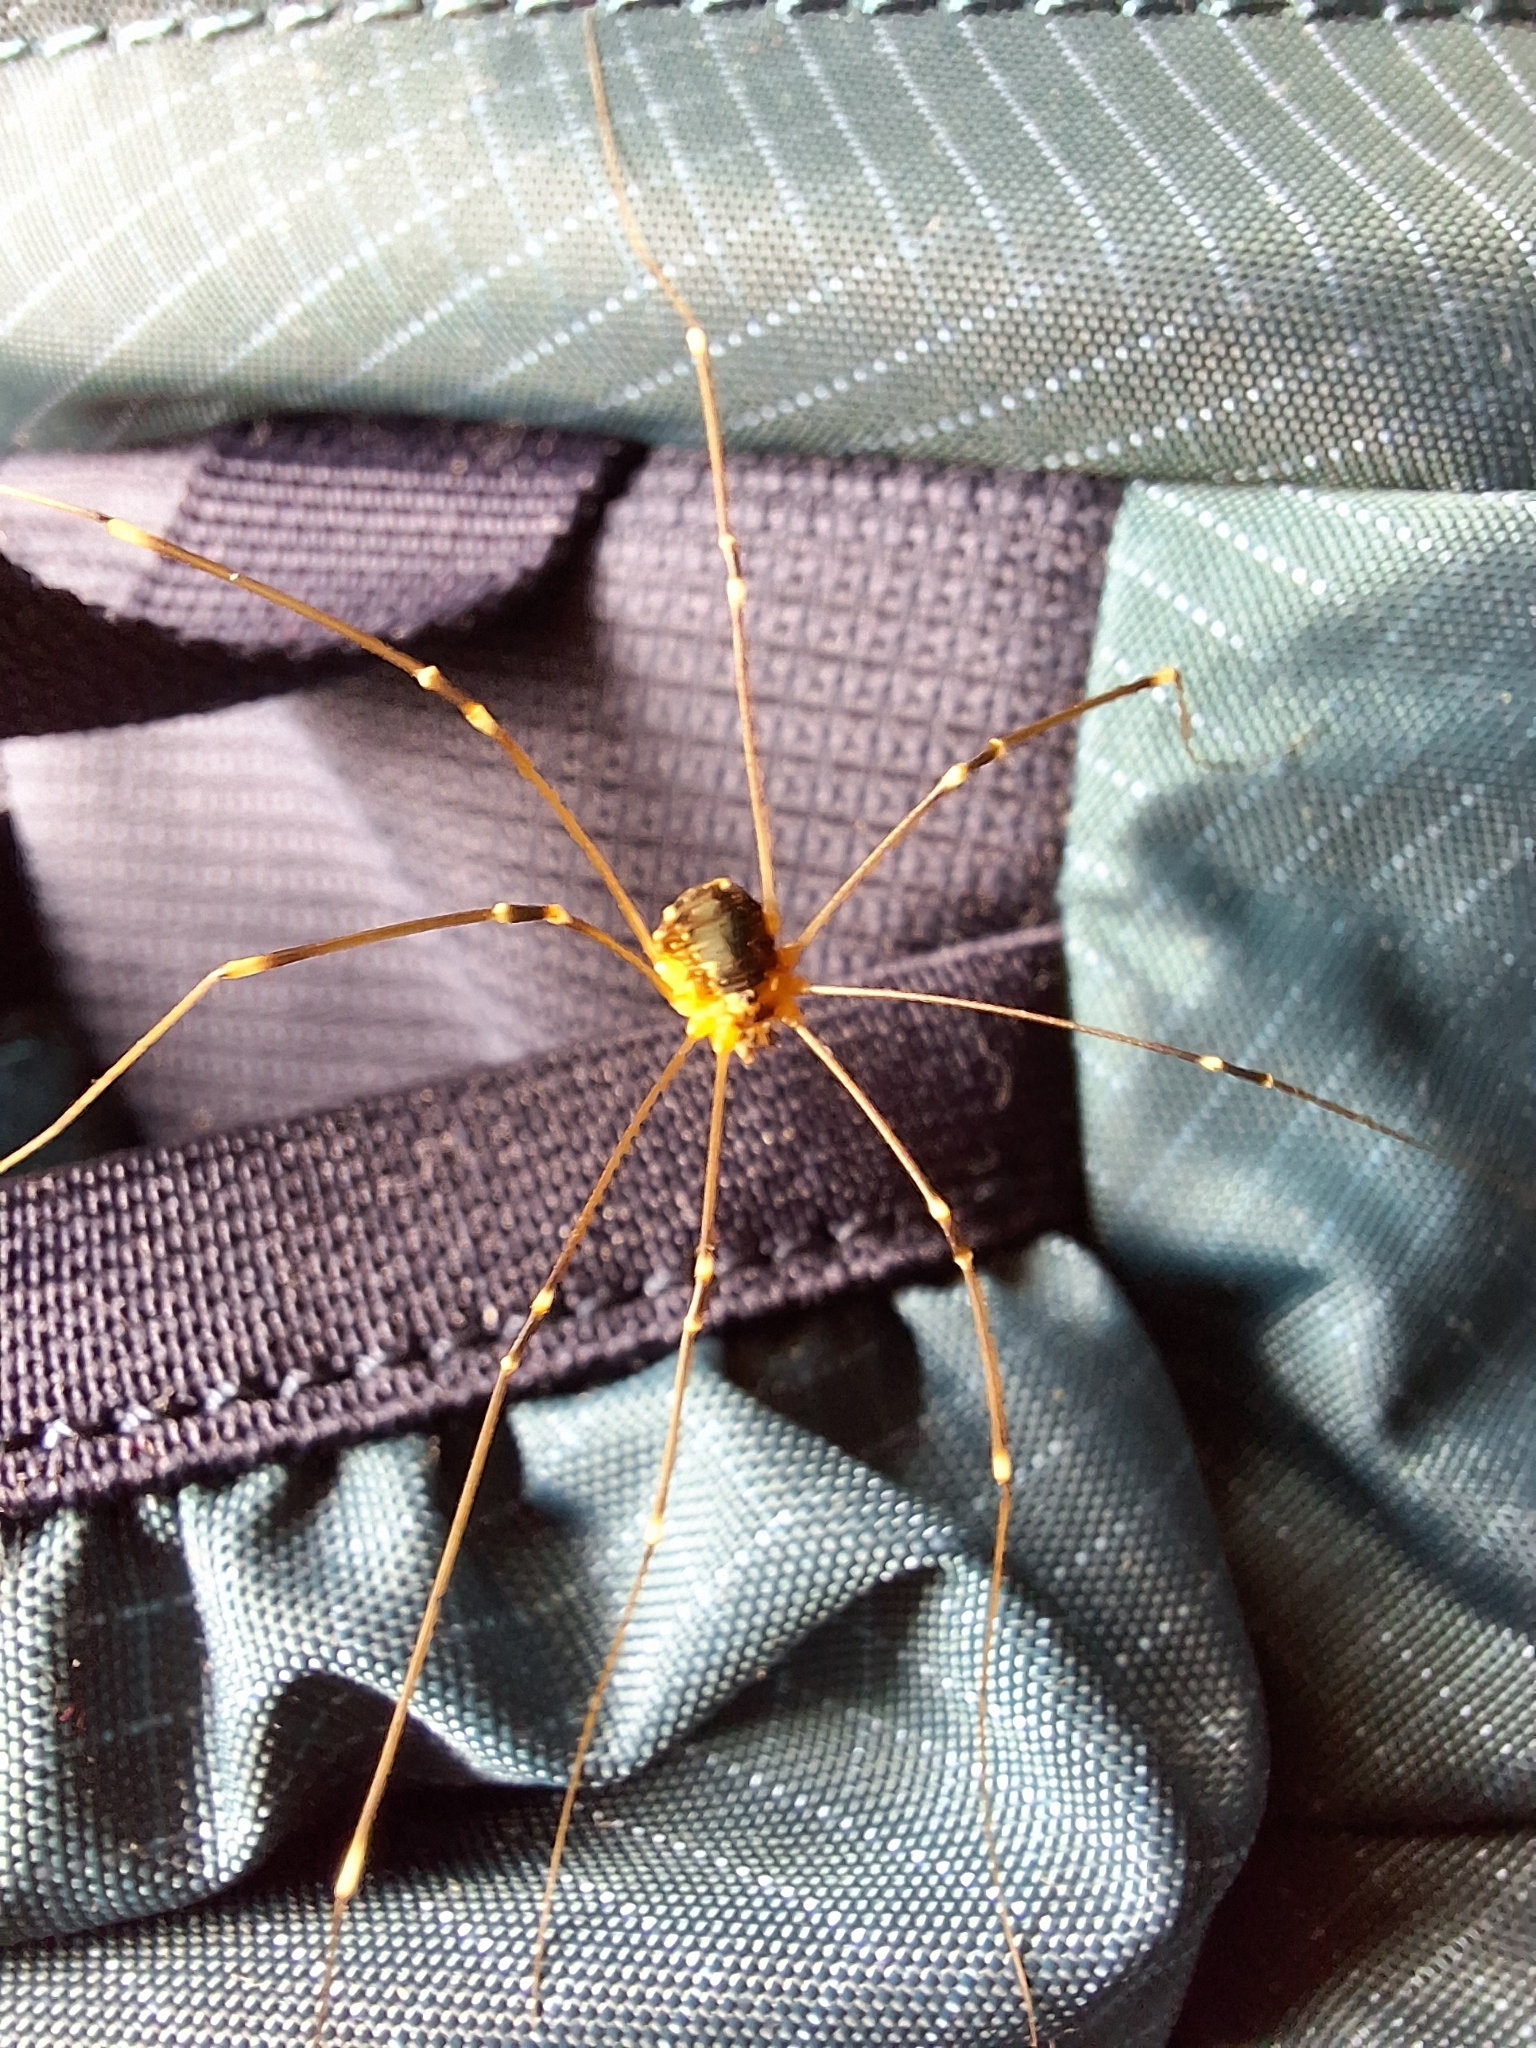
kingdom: Animalia
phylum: Arthropoda
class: Arachnida
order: Opiliones
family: Sclerosomatidae
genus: Leiobunum
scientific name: Leiobunum gracile
